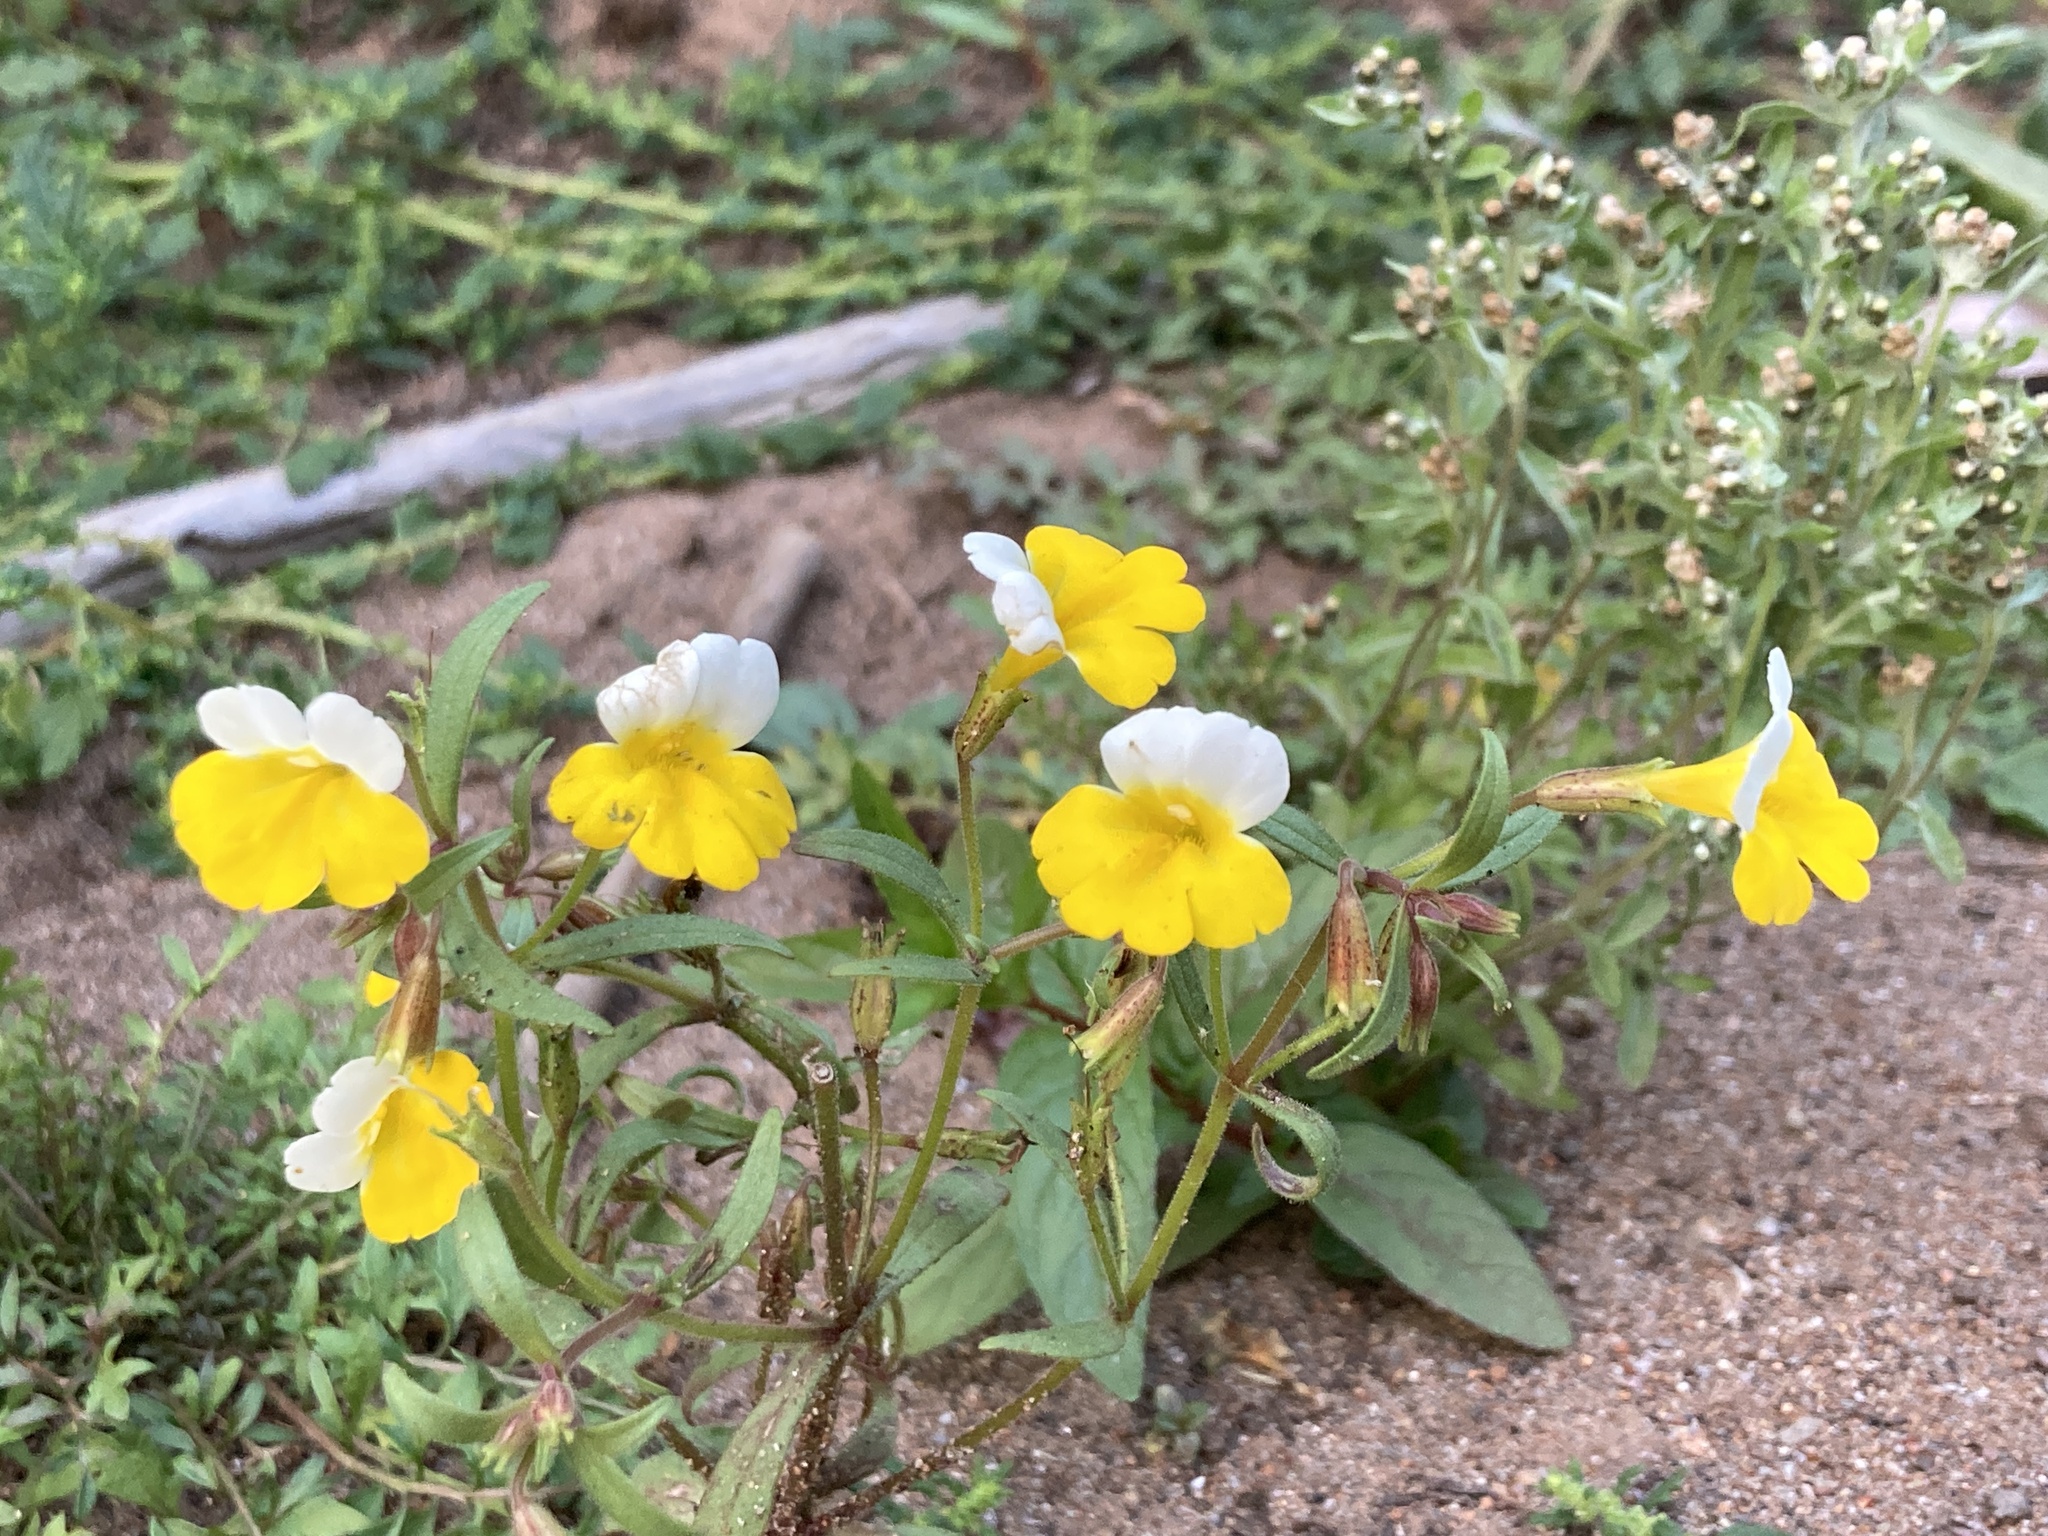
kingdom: Plantae
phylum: Tracheophyta
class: Magnoliopsida
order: Lamiales
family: Phrymaceae
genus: Erythranthe
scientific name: Erythranthe bicolor
